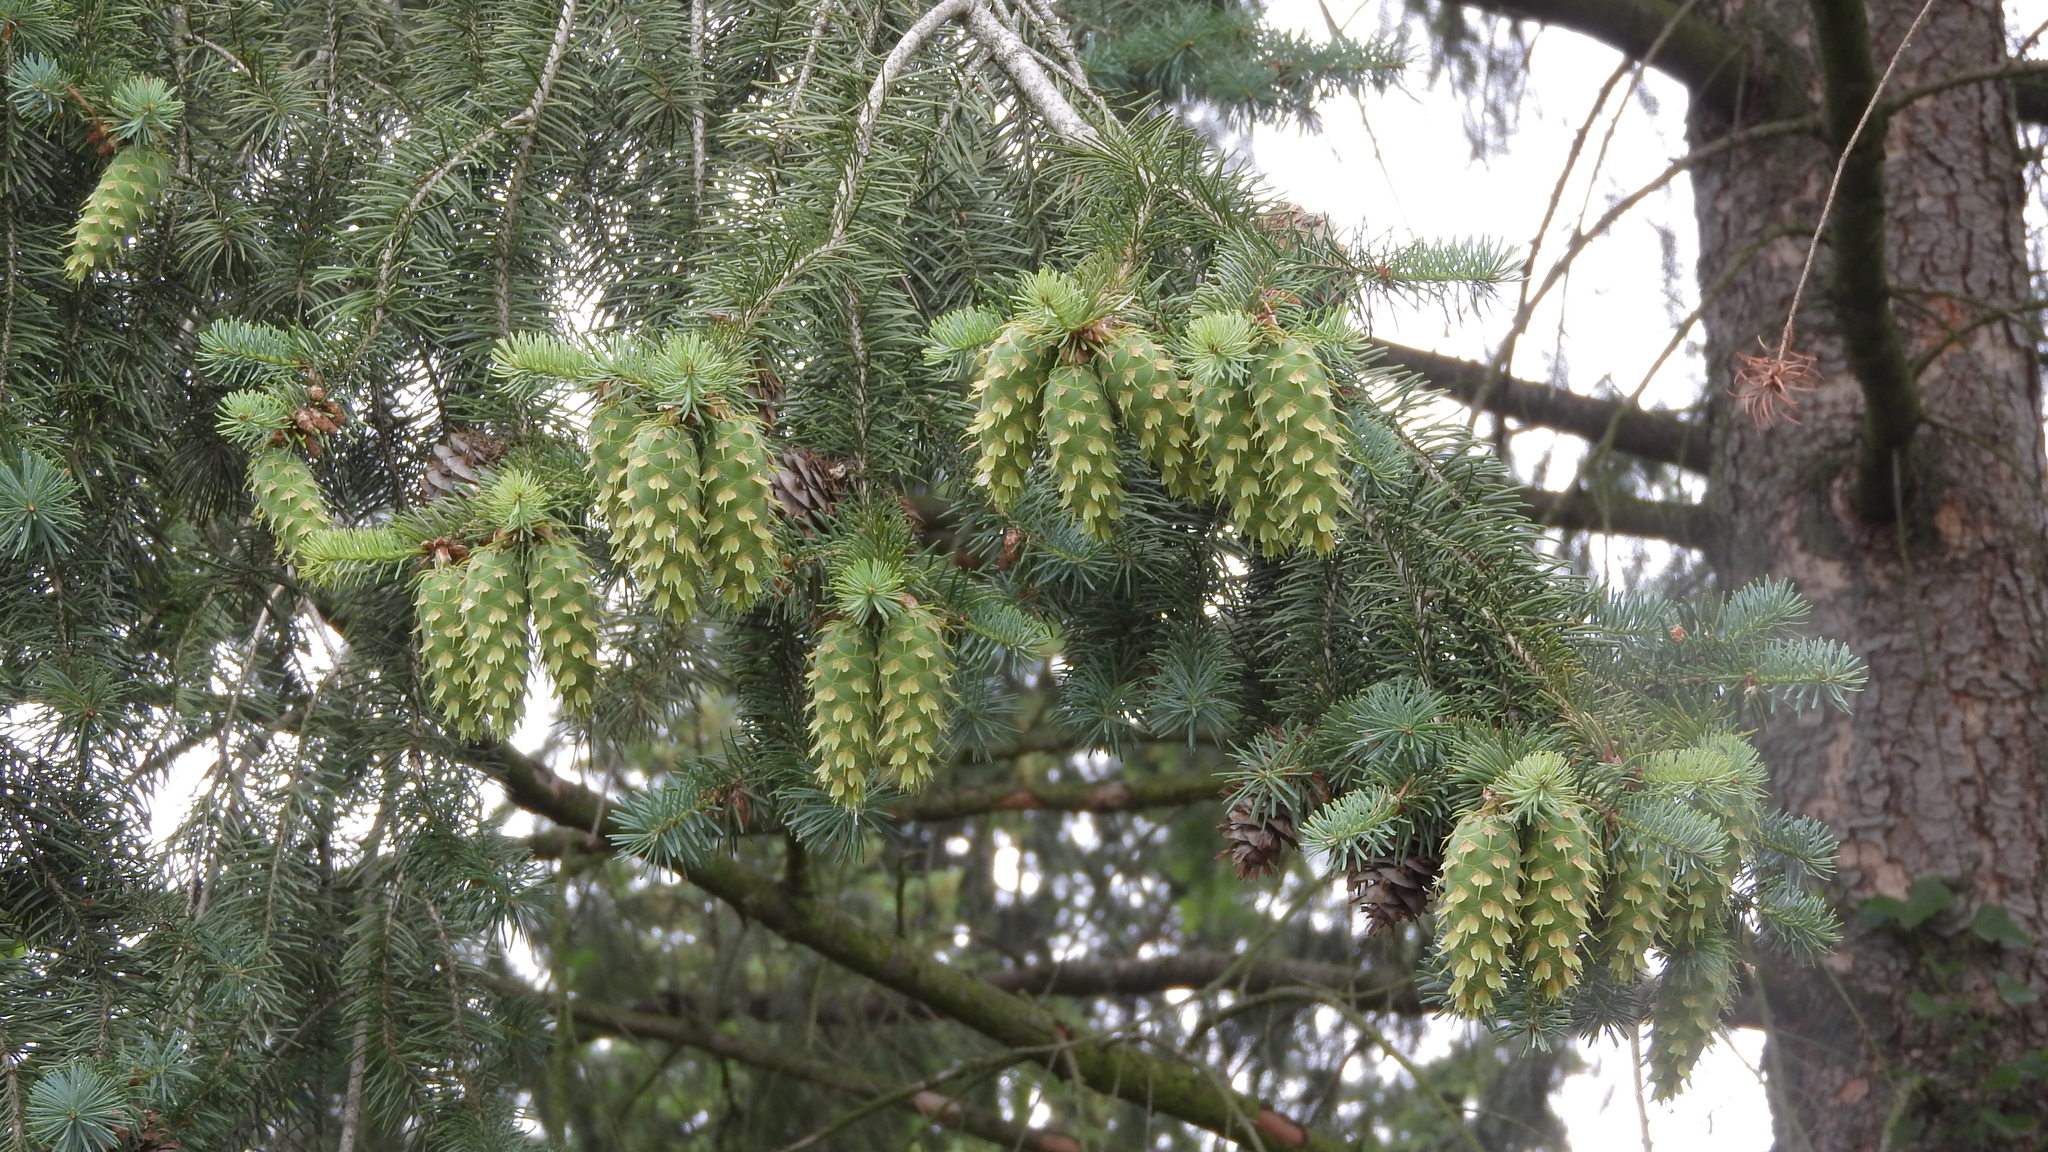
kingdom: Plantae
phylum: Tracheophyta
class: Pinopsida
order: Pinales
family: Pinaceae
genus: Pseudotsuga
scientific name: Pseudotsuga menziesii
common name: Douglas fir
